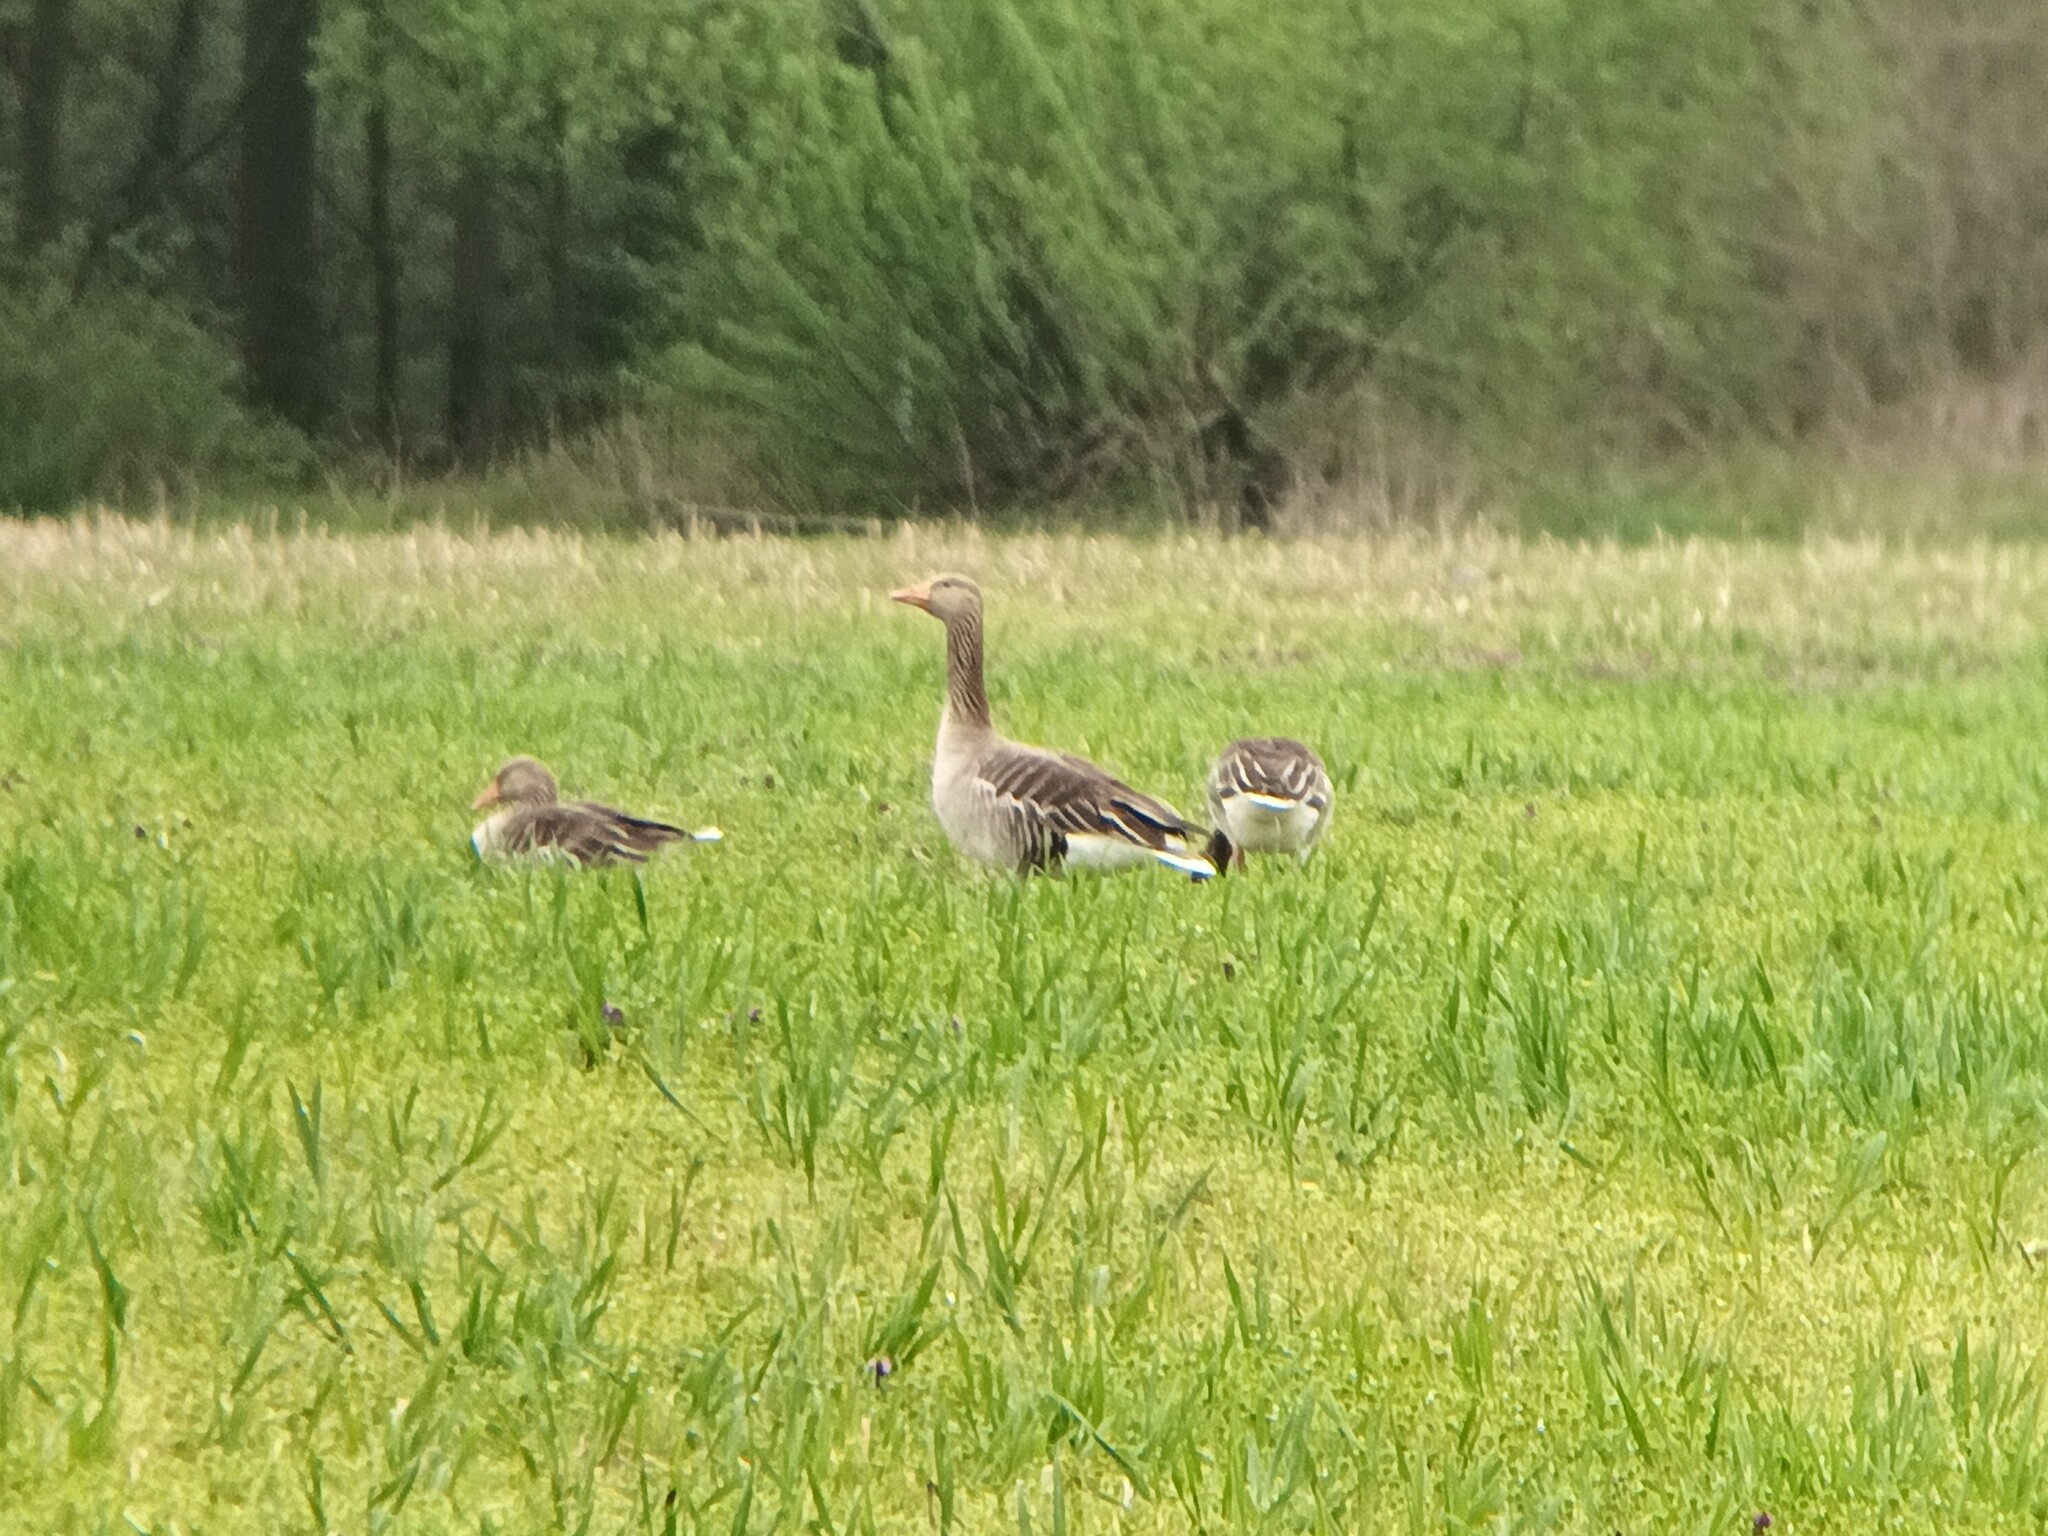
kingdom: Animalia
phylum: Chordata
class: Aves
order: Anseriformes
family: Anatidae
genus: Anser
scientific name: Anser anser
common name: Greylag goose
